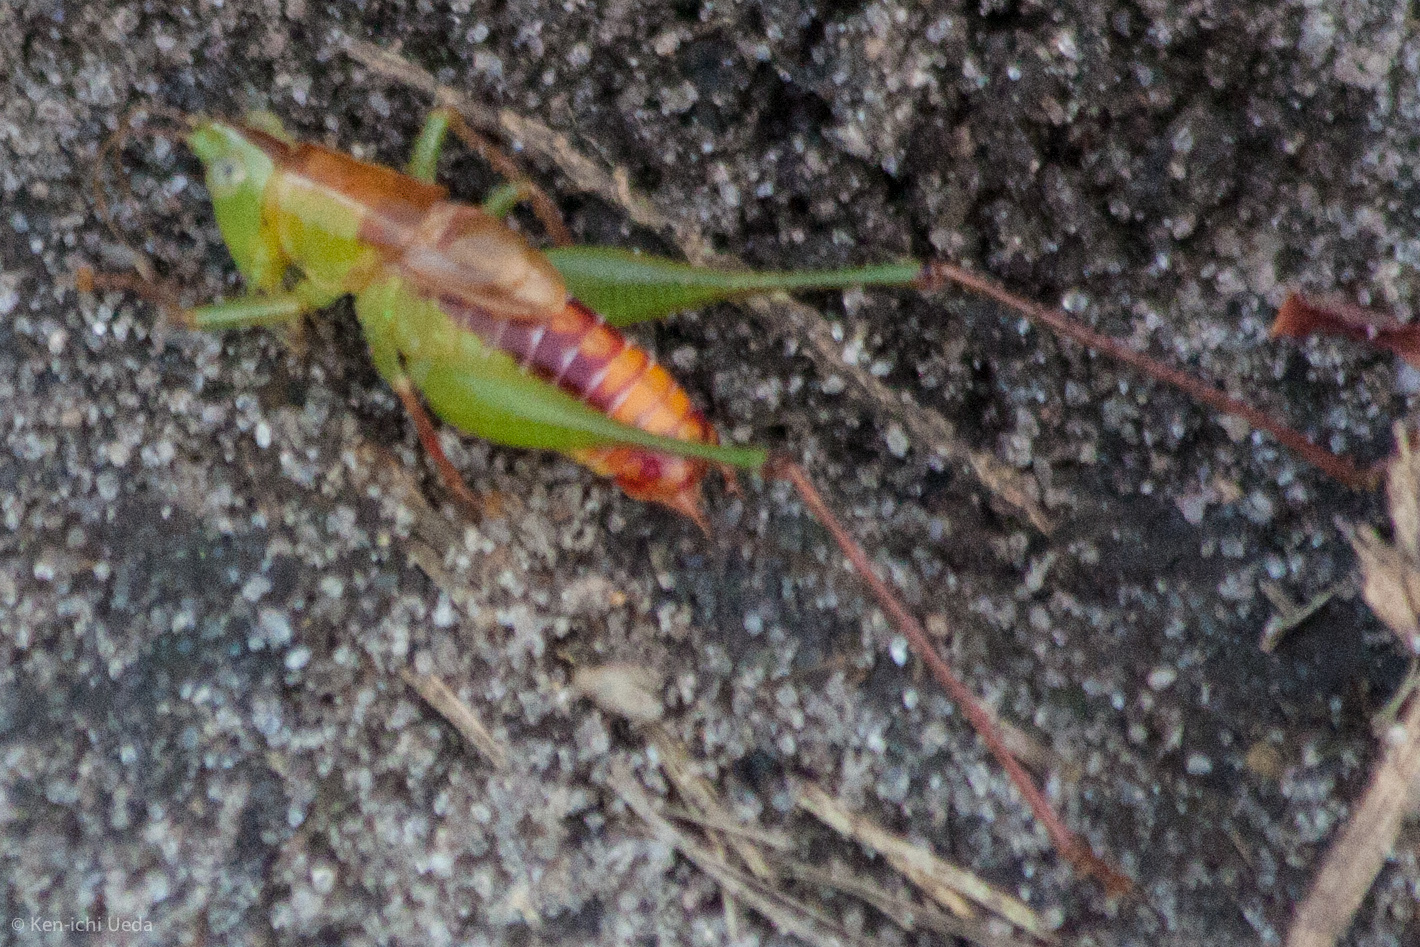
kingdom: Animalia
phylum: Arthropoda
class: Insecta
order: Orthoptera
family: Tettigoniidae
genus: Odontoxiphidium
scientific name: Odontoxiphidium apterum
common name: Wingless meadow katydid
